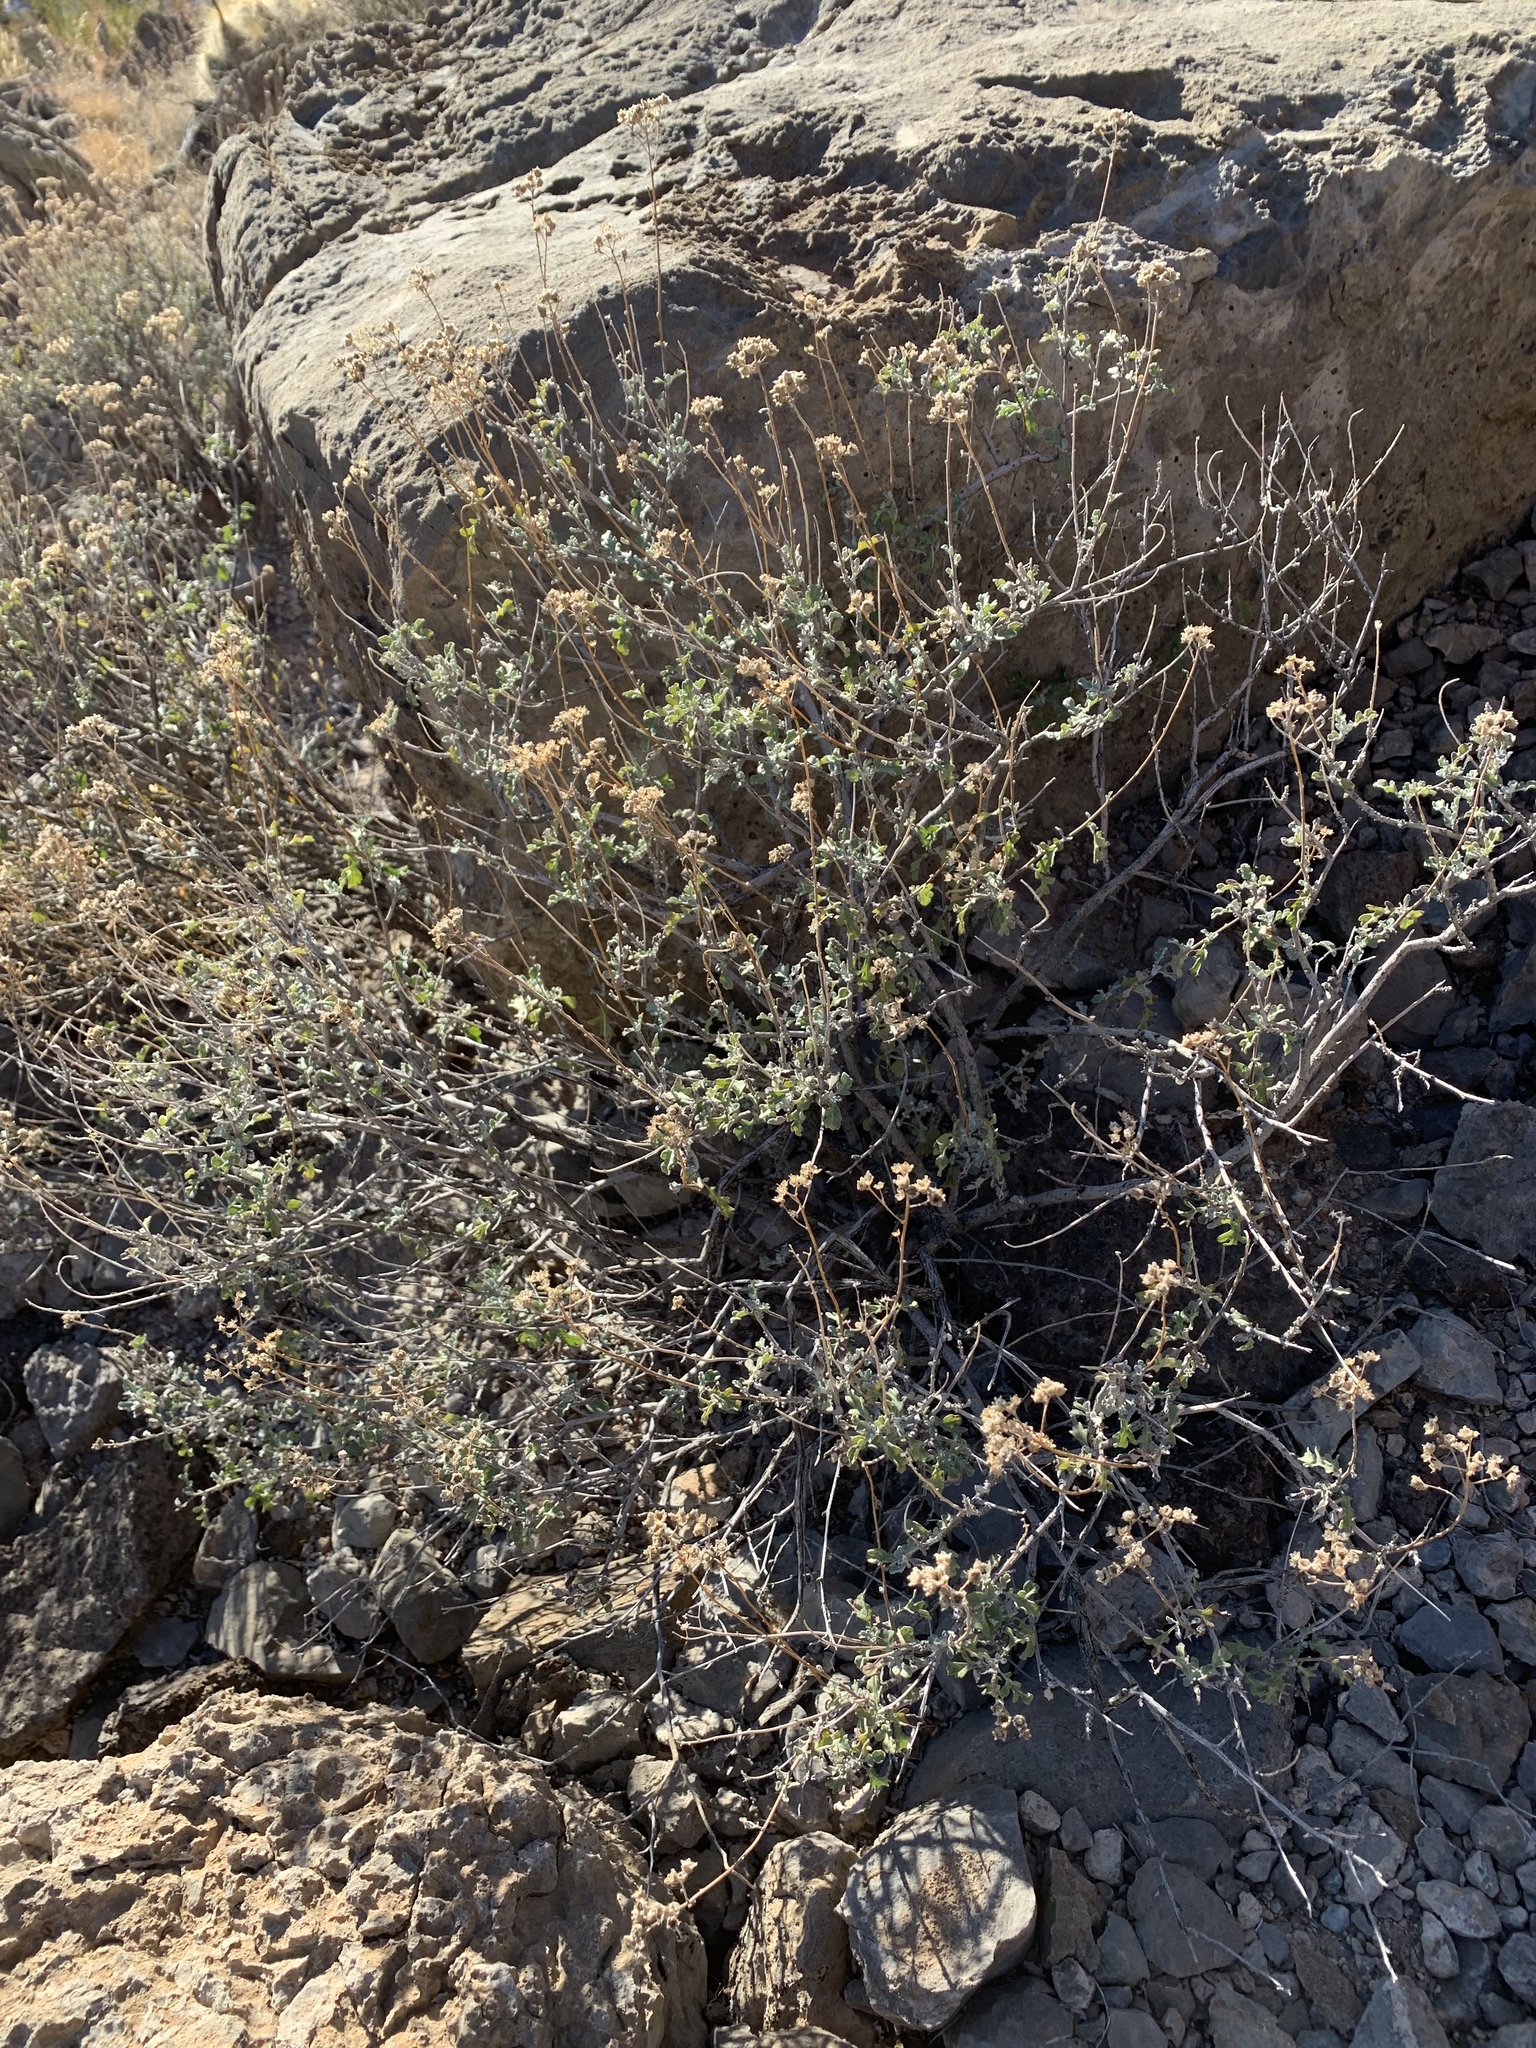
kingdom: Plantae
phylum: Tracheophyta
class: Magnoliopsida
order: Asterales
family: Asteraceae
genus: Parthenium
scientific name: Parthenium incanum
